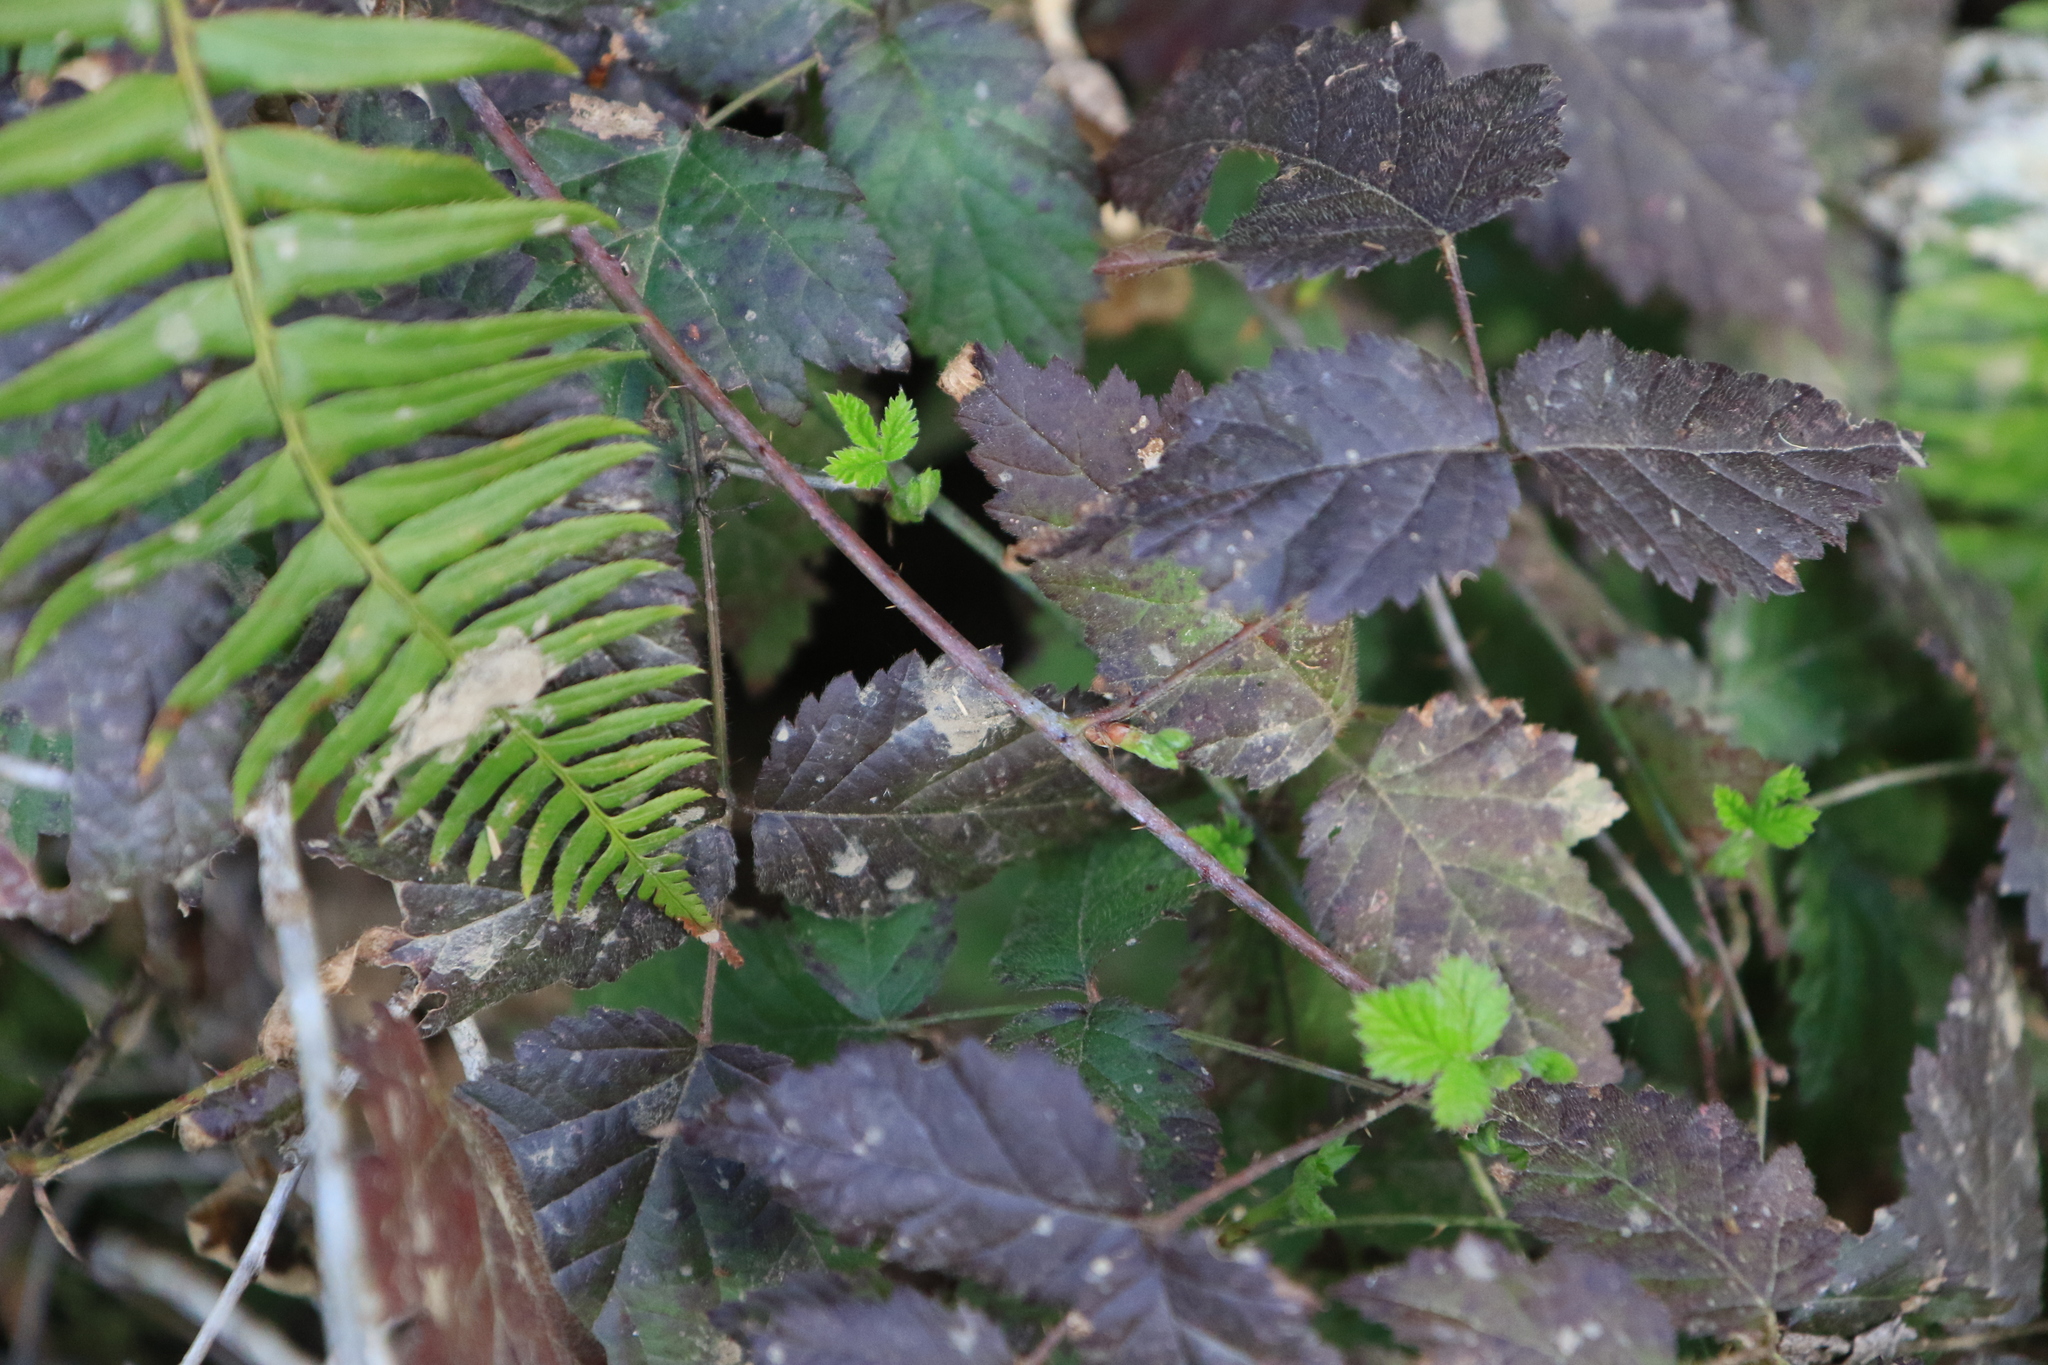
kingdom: Plantae
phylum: Tracheophyta
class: Magnoliopsida
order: Rosales
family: Rosaceae
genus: Rubus
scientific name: Rubus ursinus
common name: Pacific blackberry
